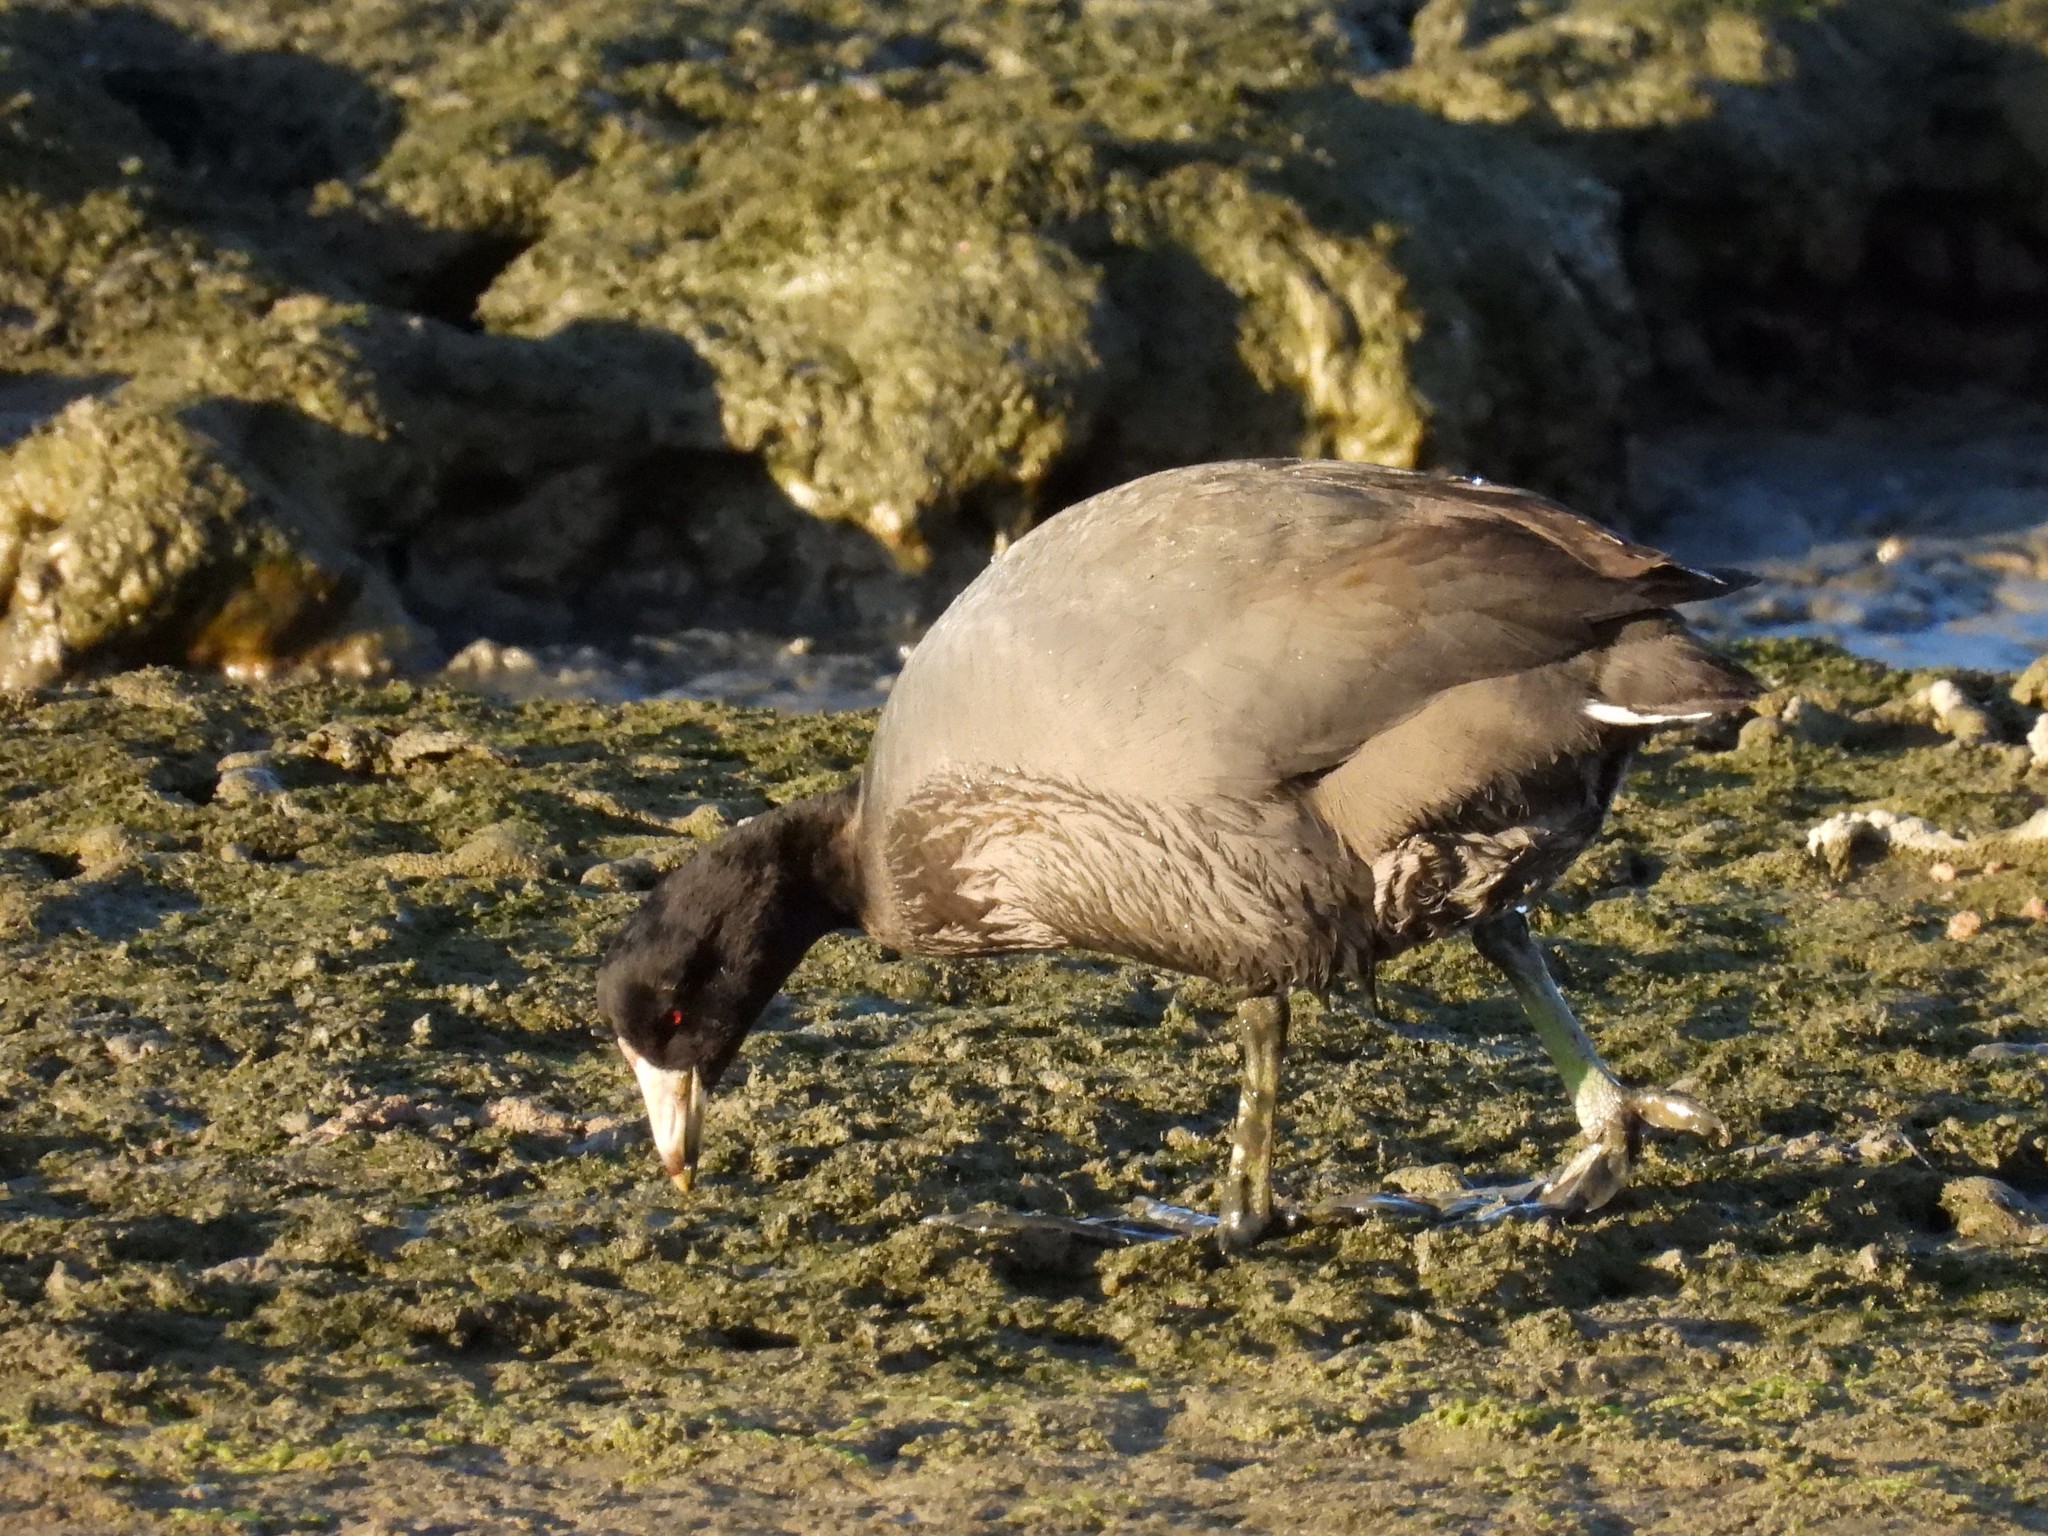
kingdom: Animalia
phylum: Chordata
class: Aves
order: Gruiformes
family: Rallidae
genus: Fulica
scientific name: Fulica americana
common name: American coot
